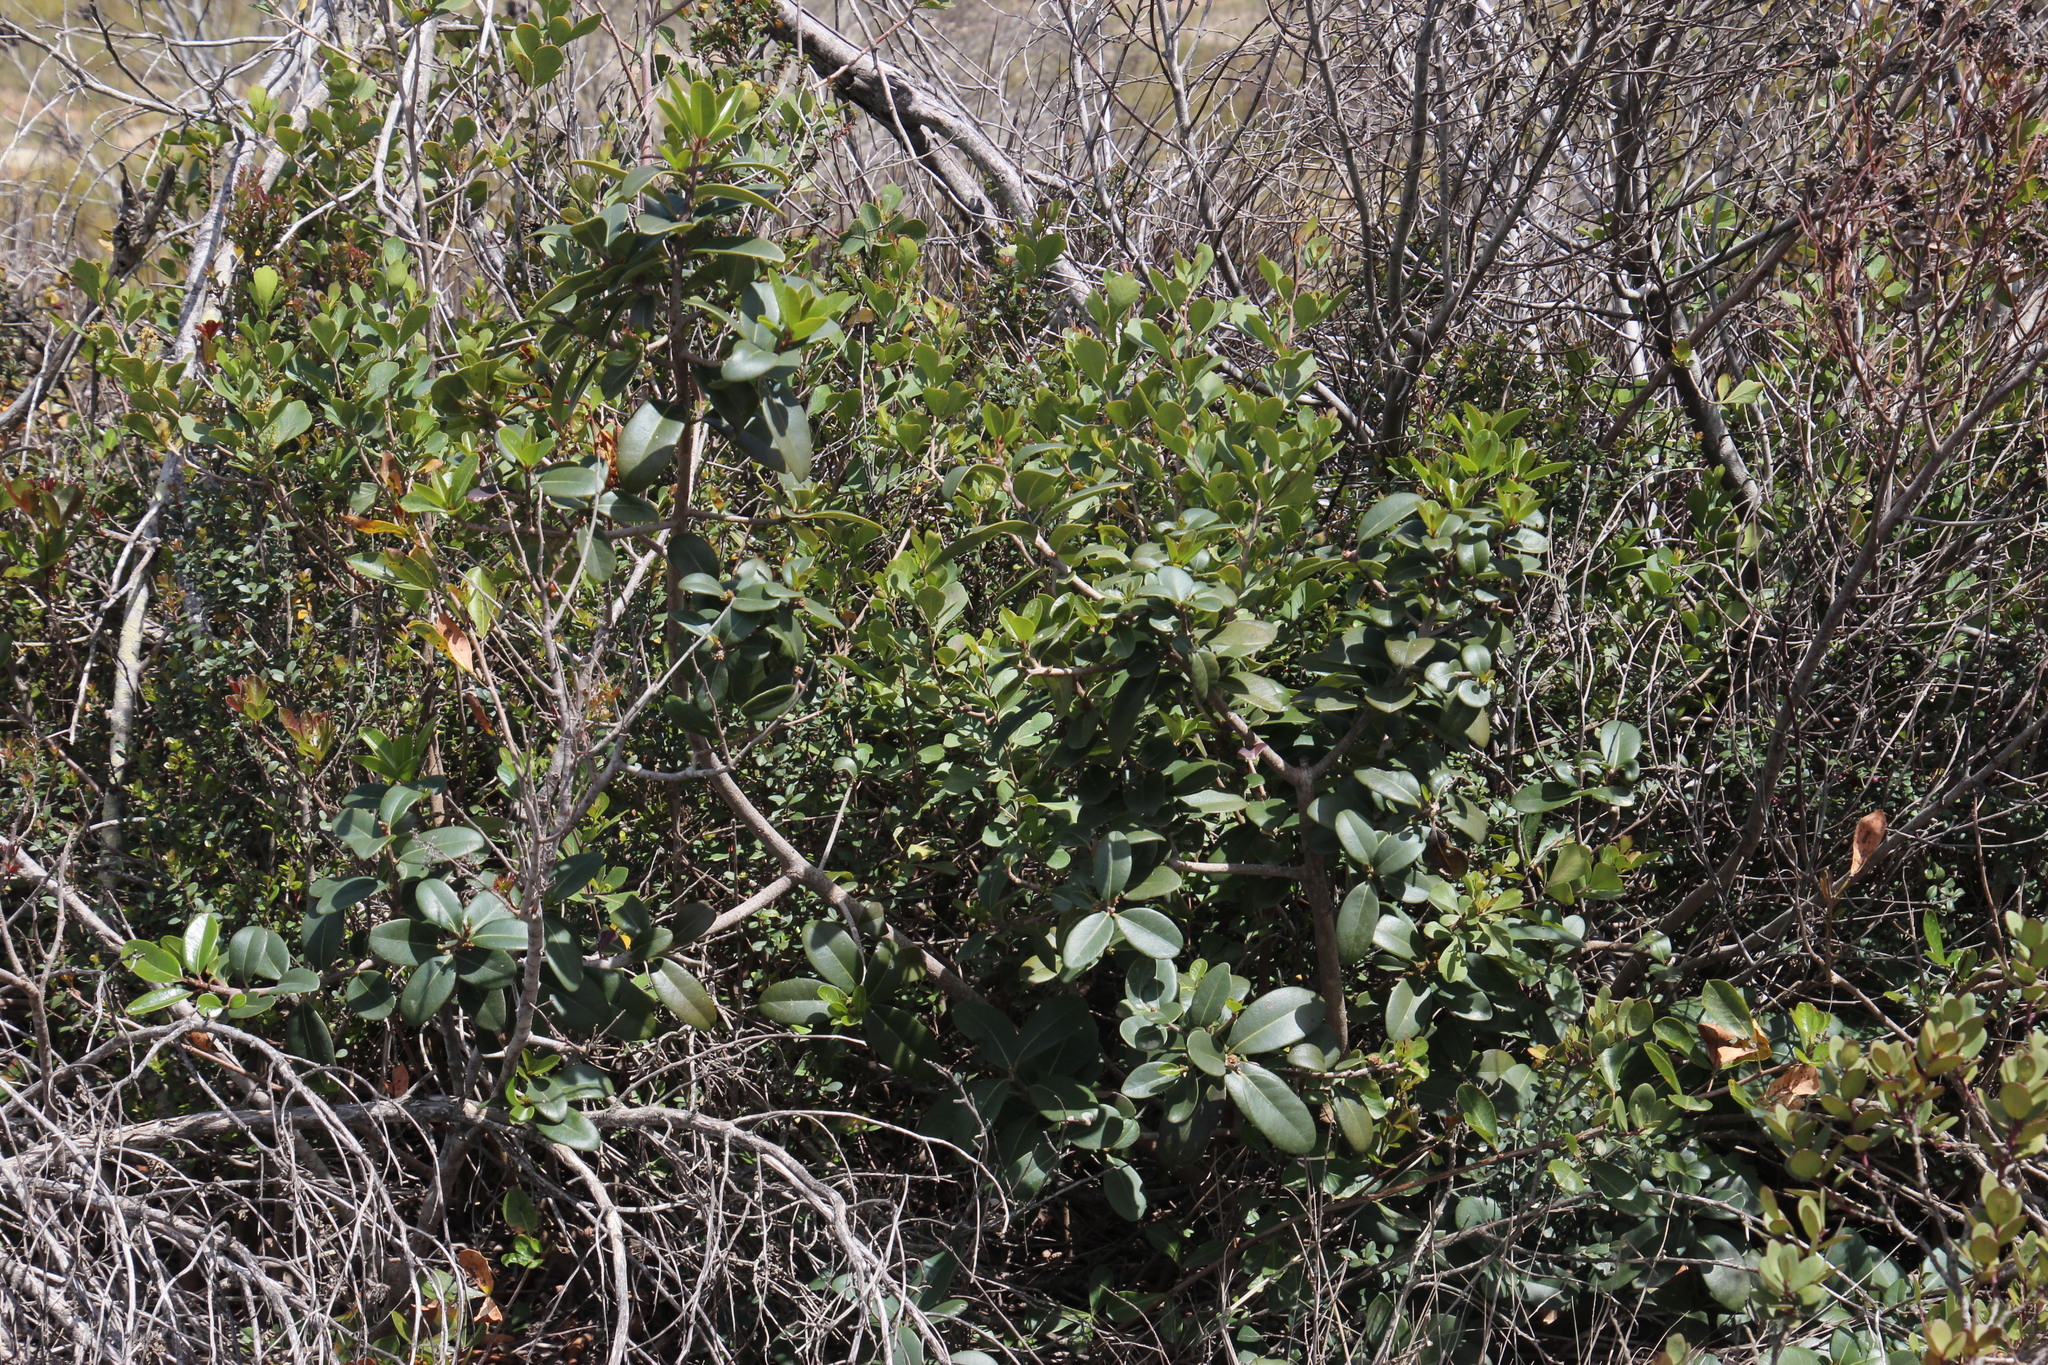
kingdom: Plantae
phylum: Tracheophyta
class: Magnoliopsida
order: Ericales
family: Sapotaceae
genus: Sideroxylon
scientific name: Sideroxylon inerme
